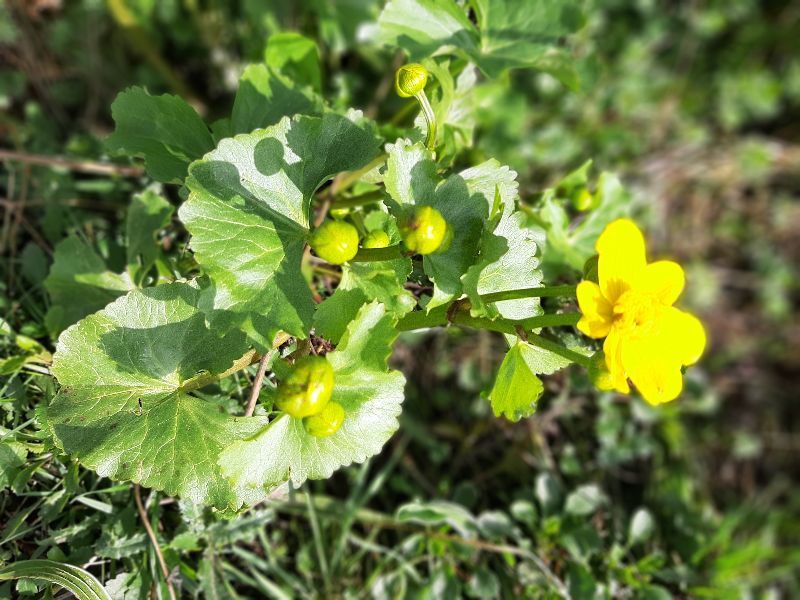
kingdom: Plantae
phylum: Tracheophyta
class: Magnoliopsida
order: Ranunculales
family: Ranunculaceae
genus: Caltha
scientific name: Caltha palustris
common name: Marsh marigold
